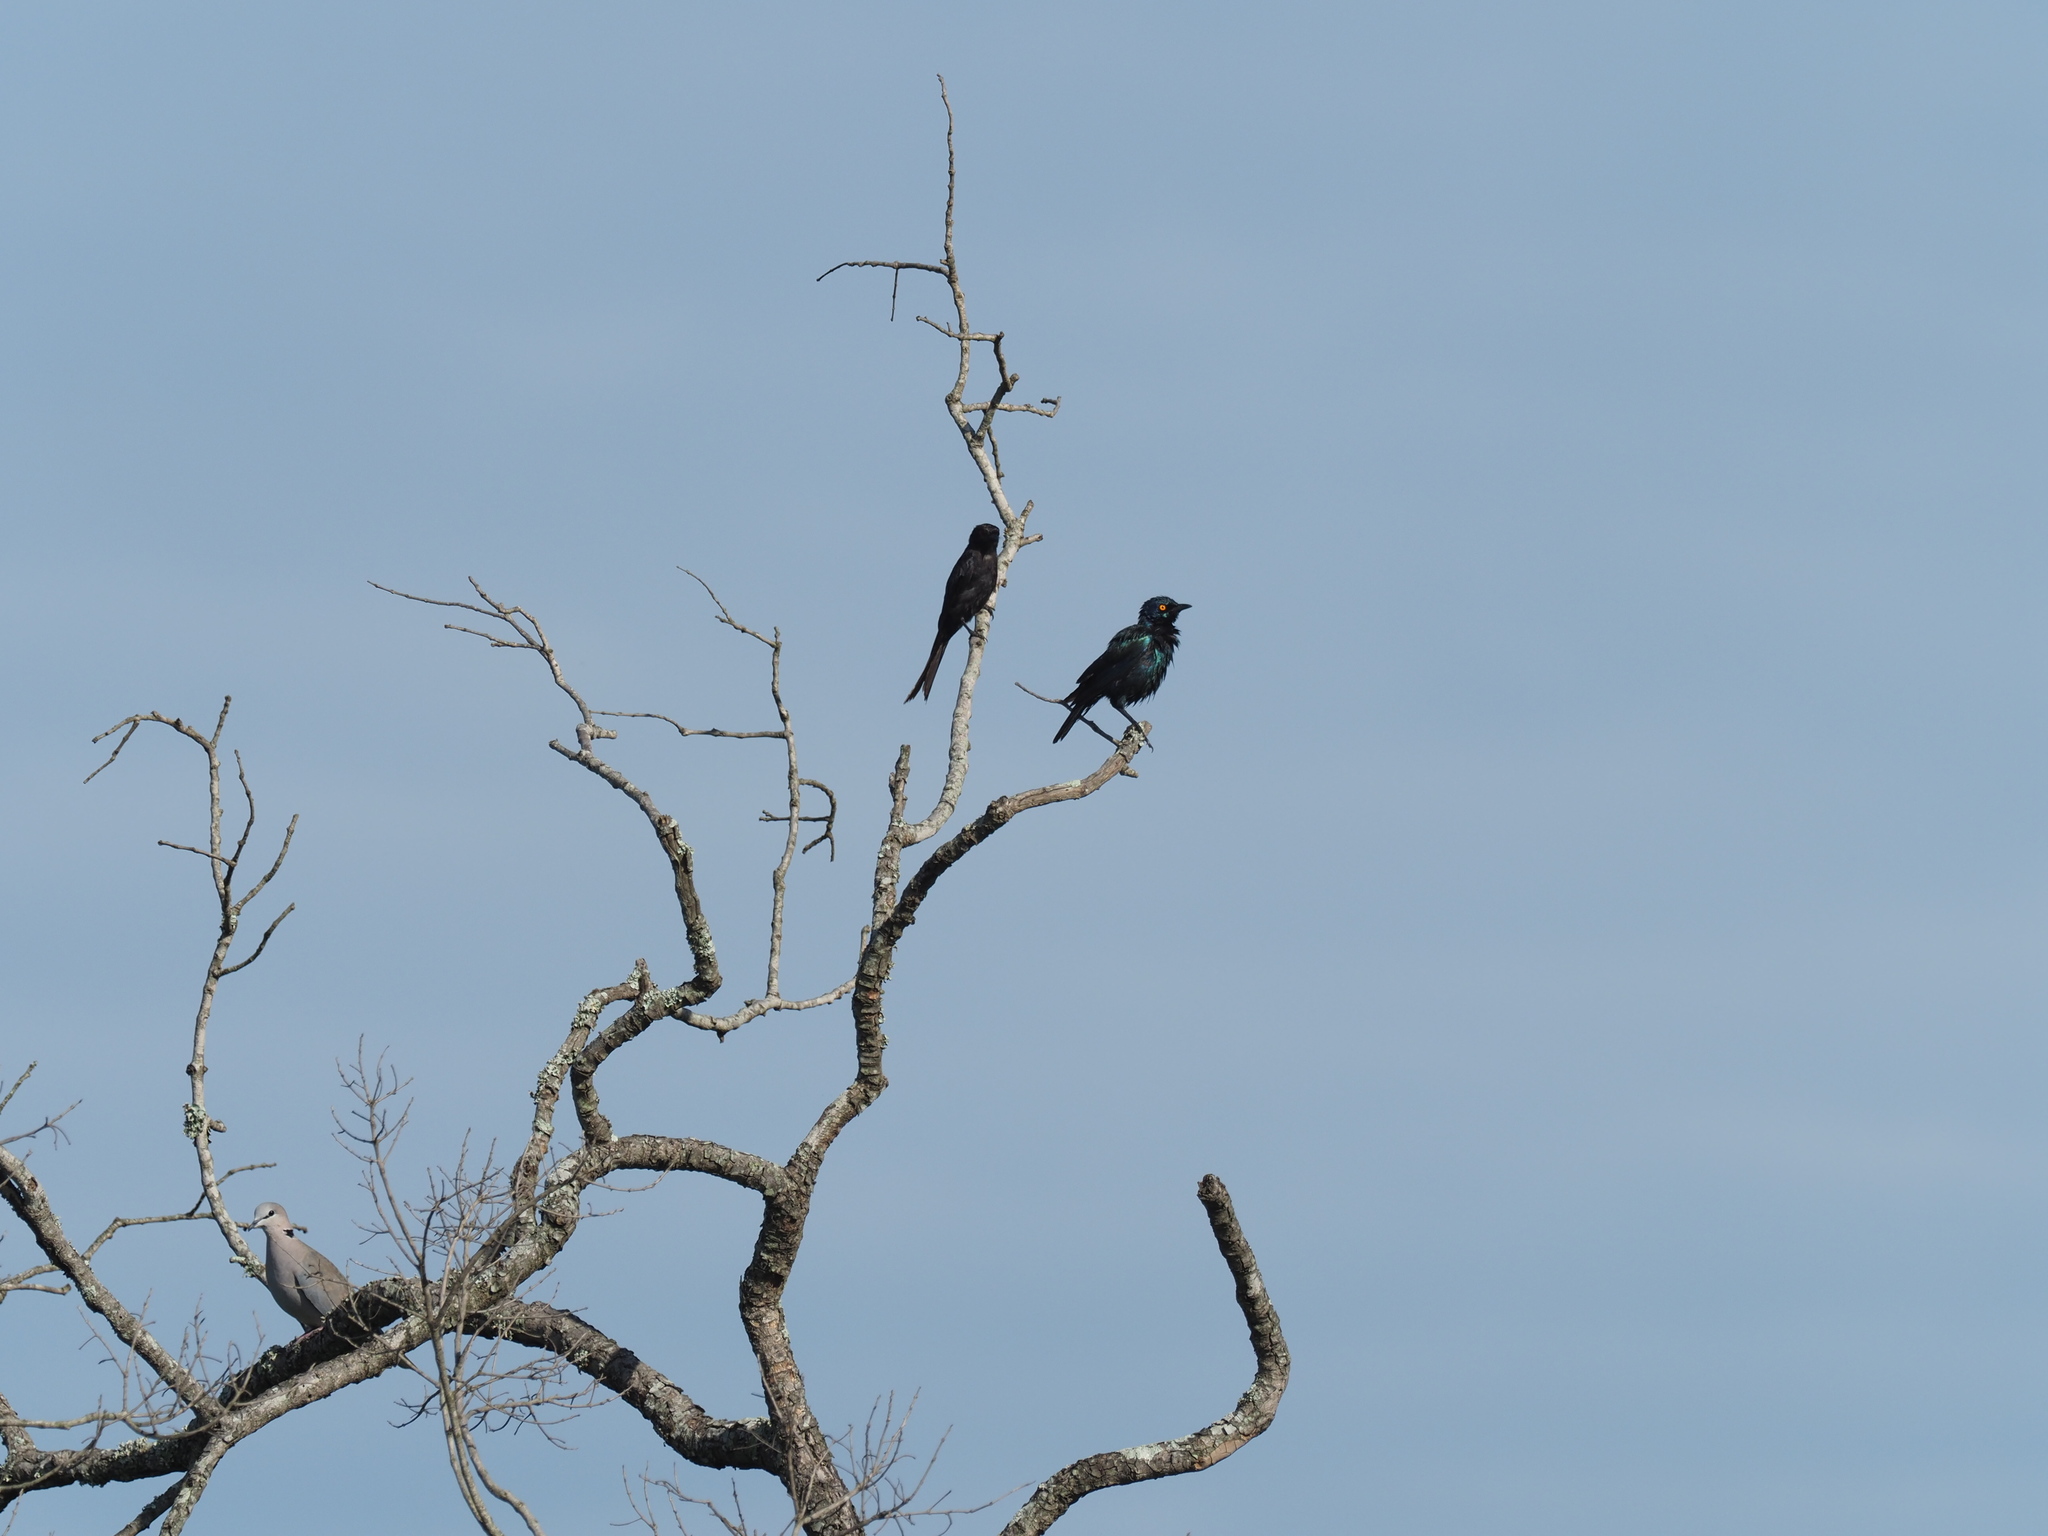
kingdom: Animalia
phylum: Chordata
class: Aves
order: Passeriformes
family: Dicruridae
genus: Dicrurus
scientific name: Dicrurus adsimilis
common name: Fork-tailed drongo
